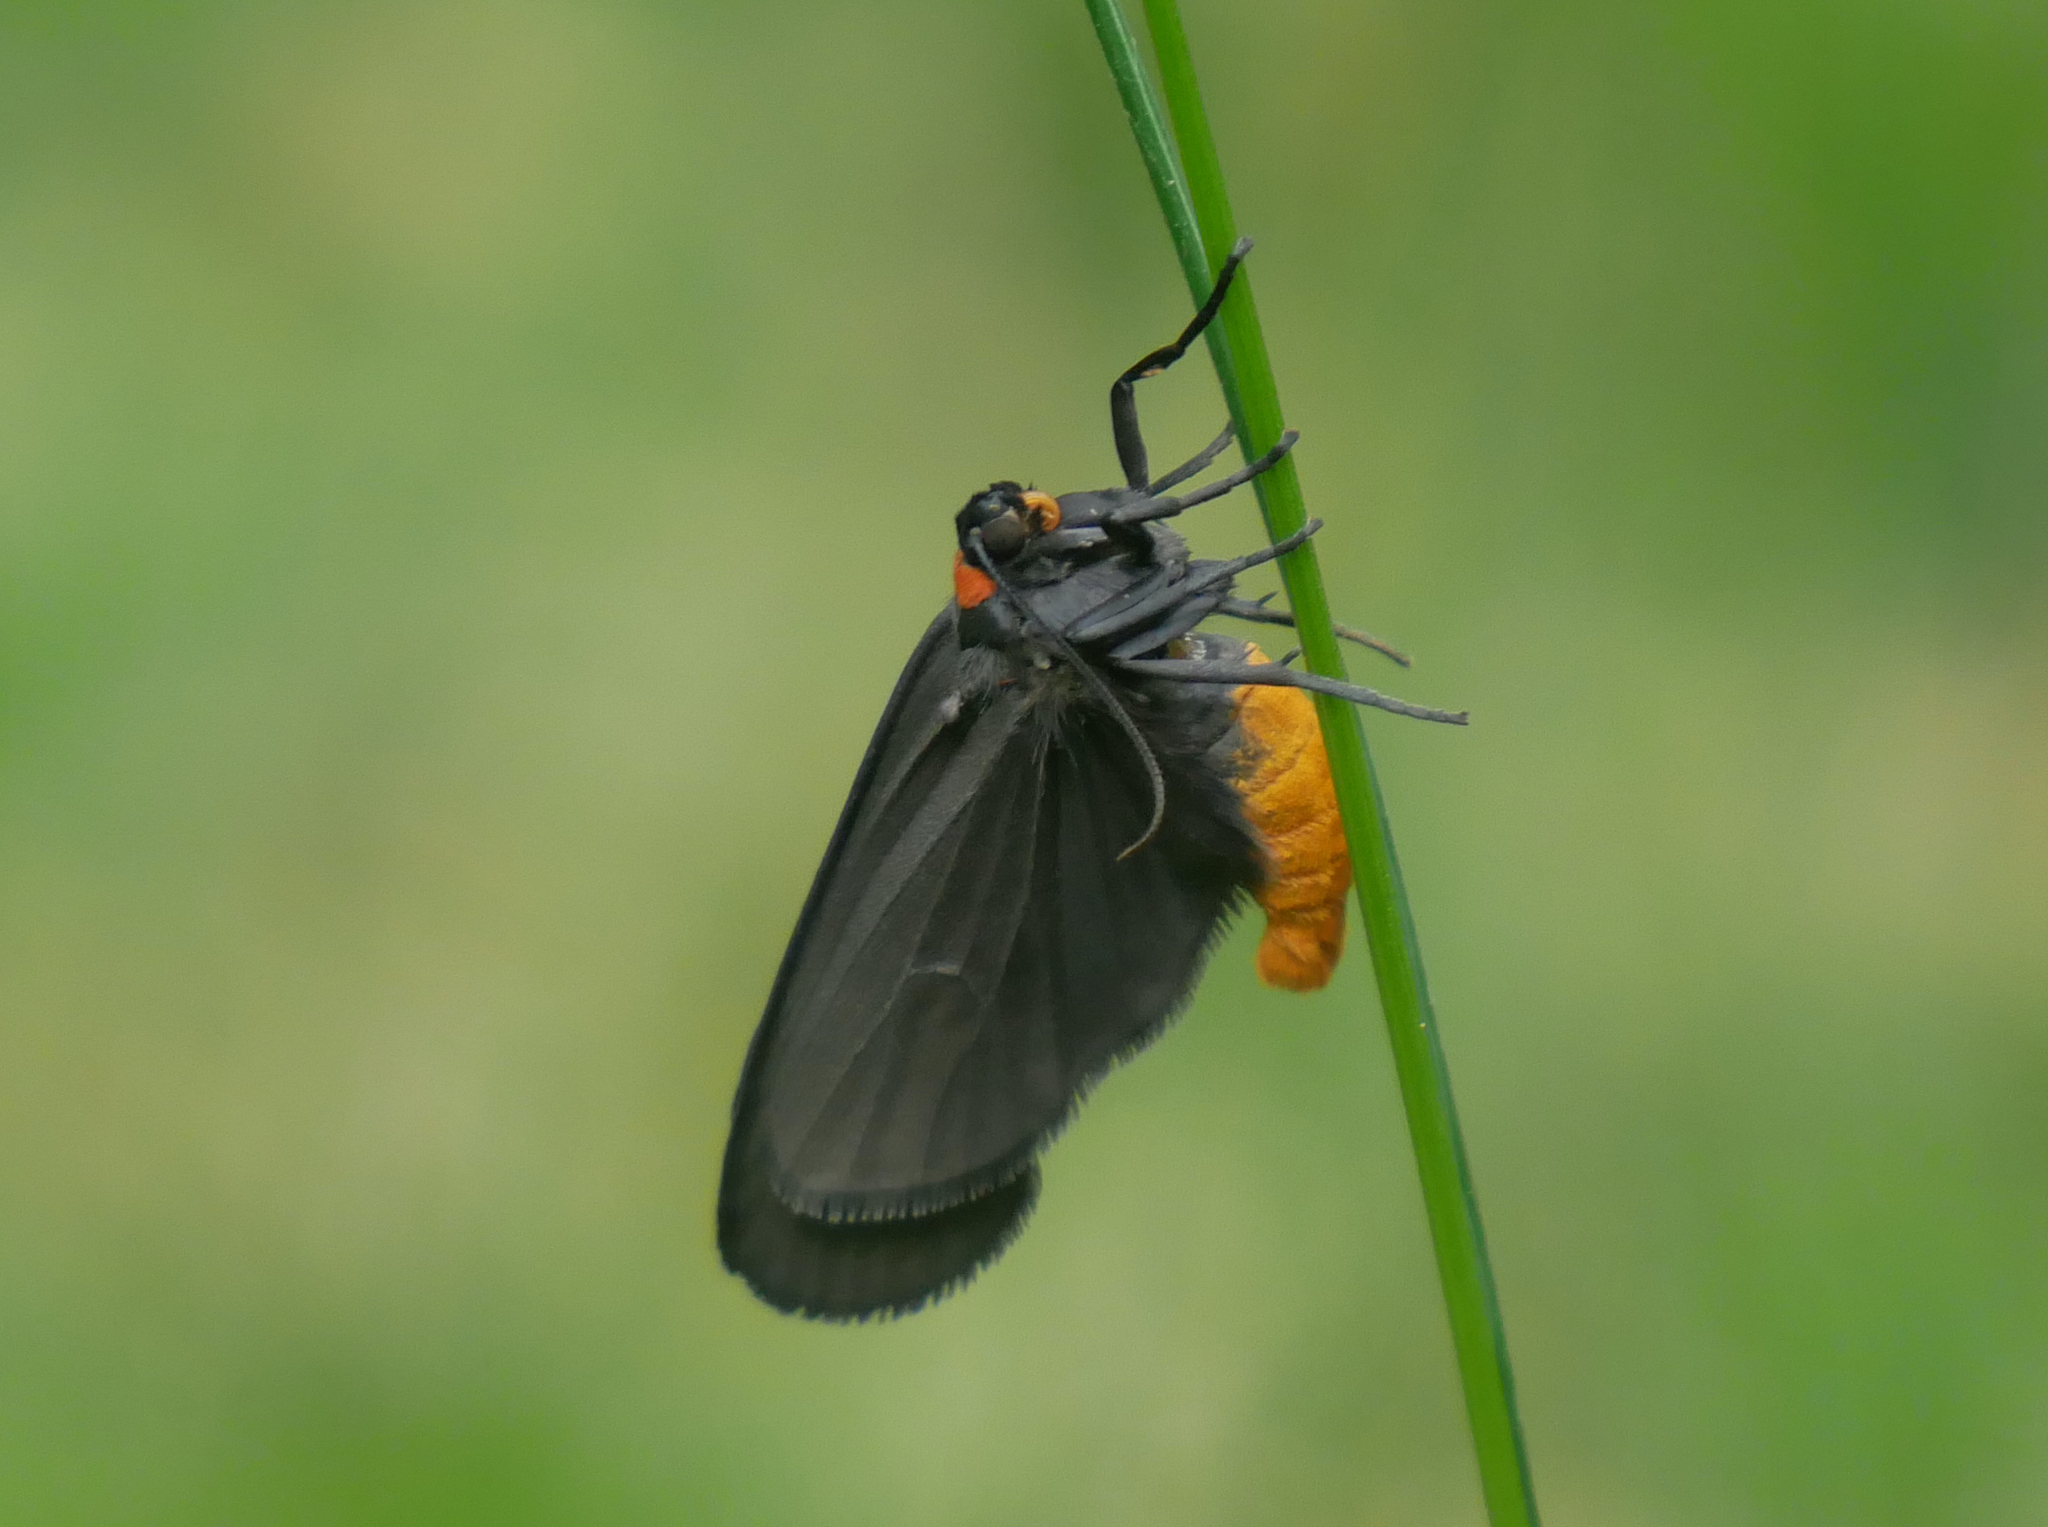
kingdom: Animalia
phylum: Arthropoda
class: Insecta
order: Lepidoptera
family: Erebidae
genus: Atolmis
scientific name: Atolmis rubricollis
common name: Red-necked footman
